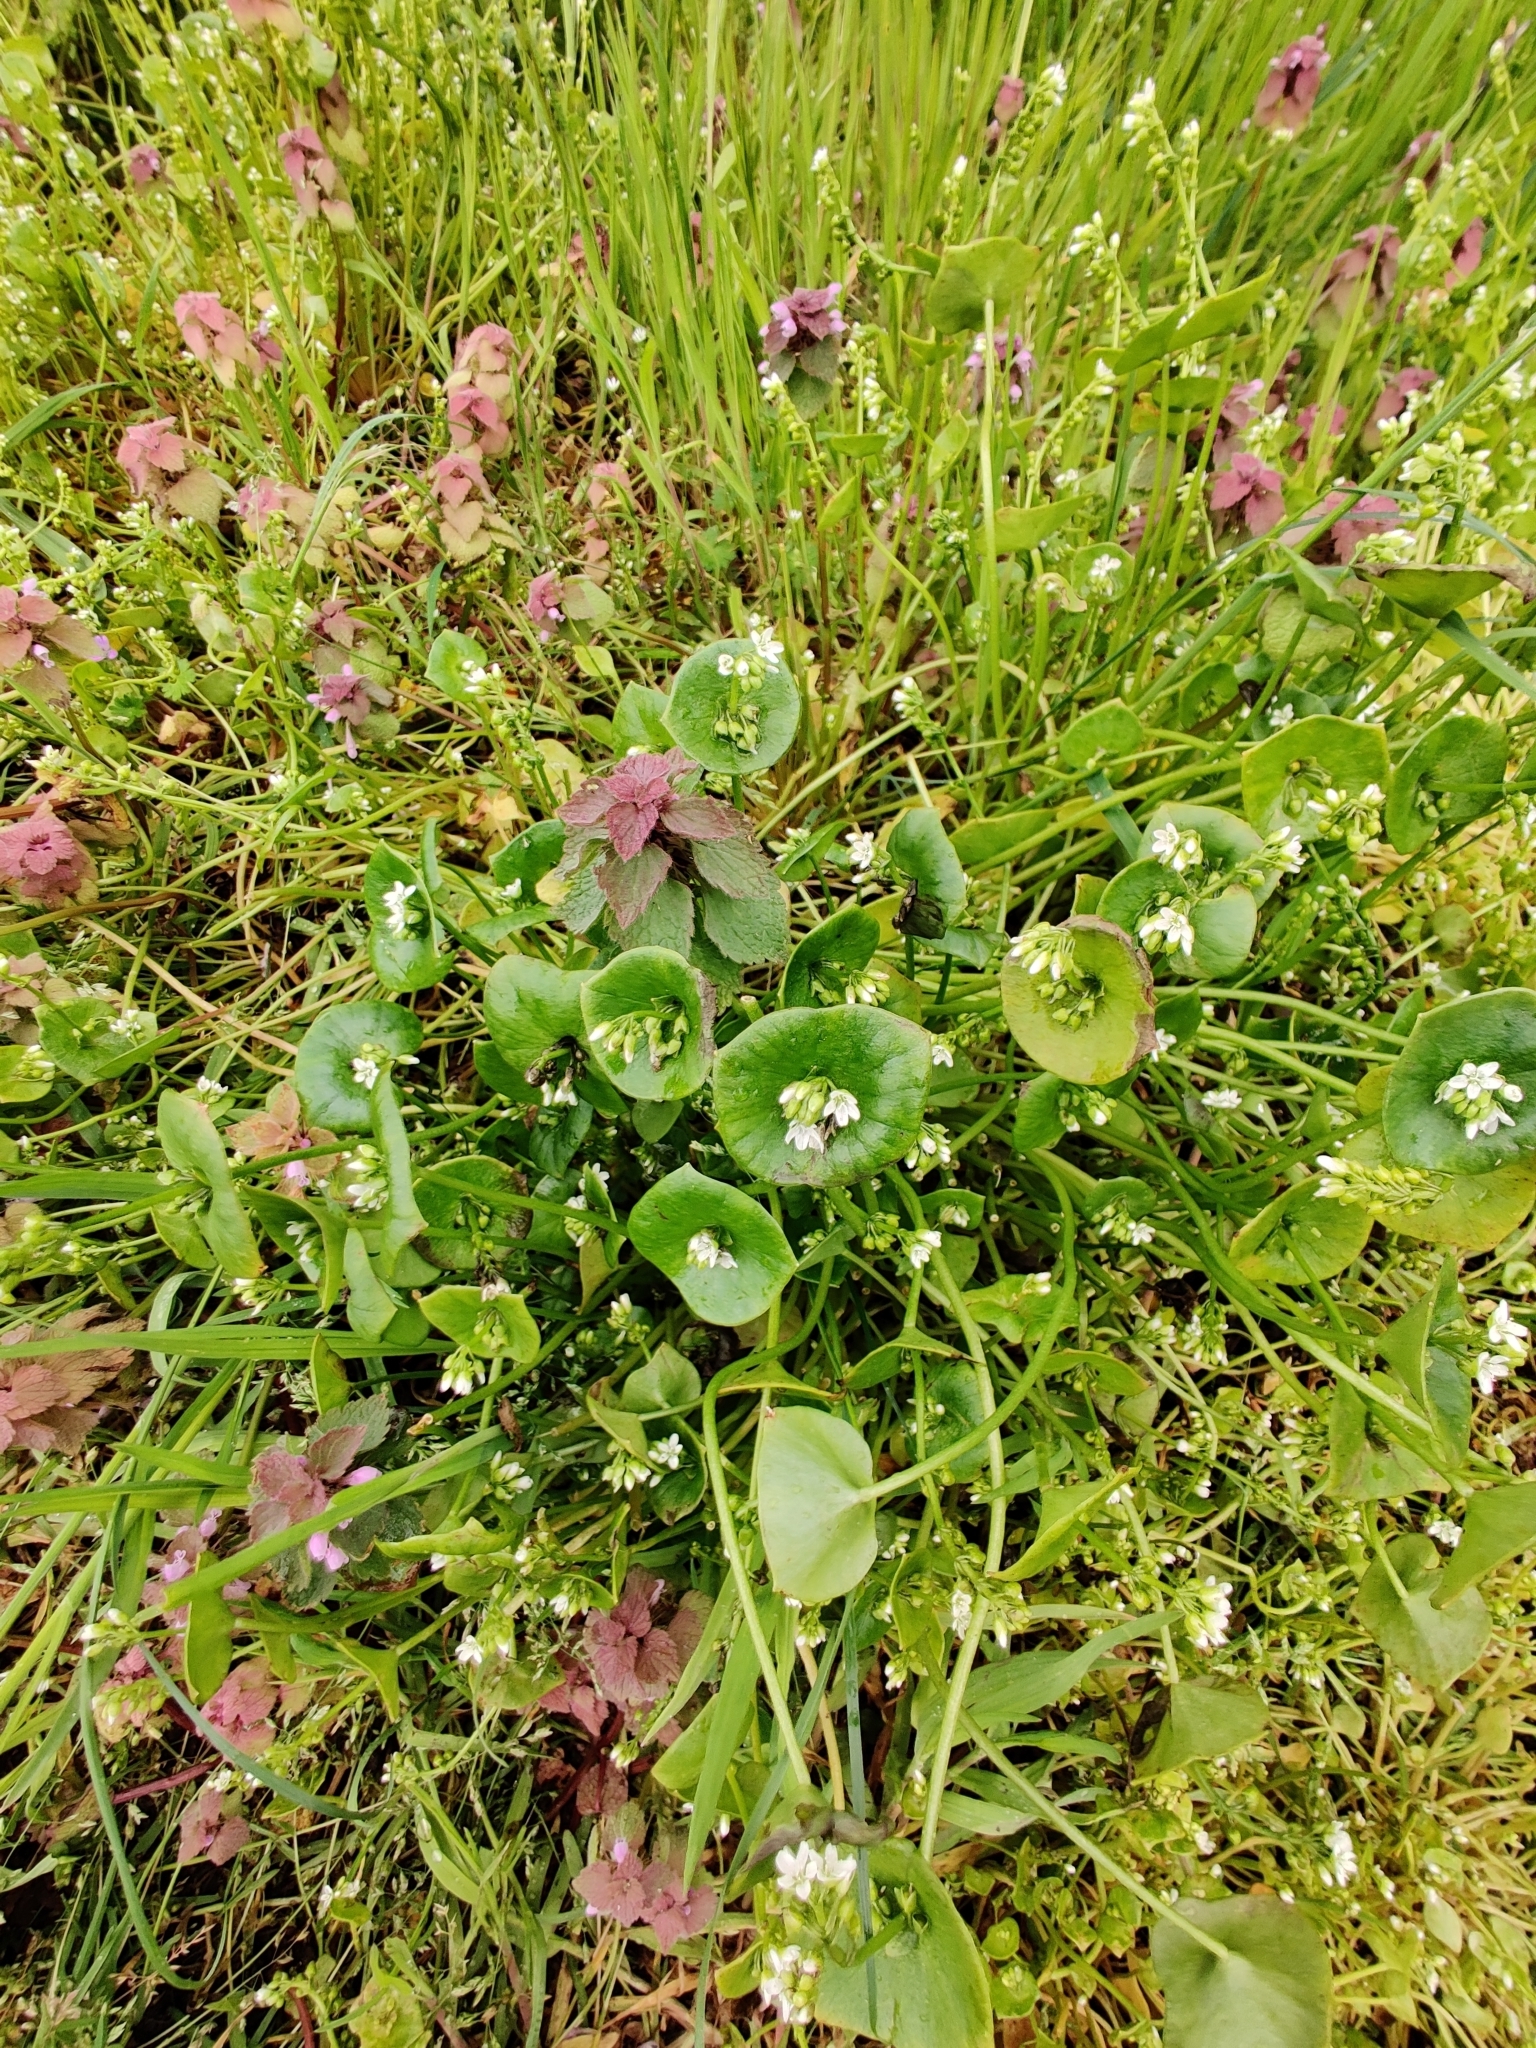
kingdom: Plantae
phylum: Tracheophyta
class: Magnoliopsida
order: Caryophyllales
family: Montiaceae
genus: Claytonia
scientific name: Claytonia perfoliata
